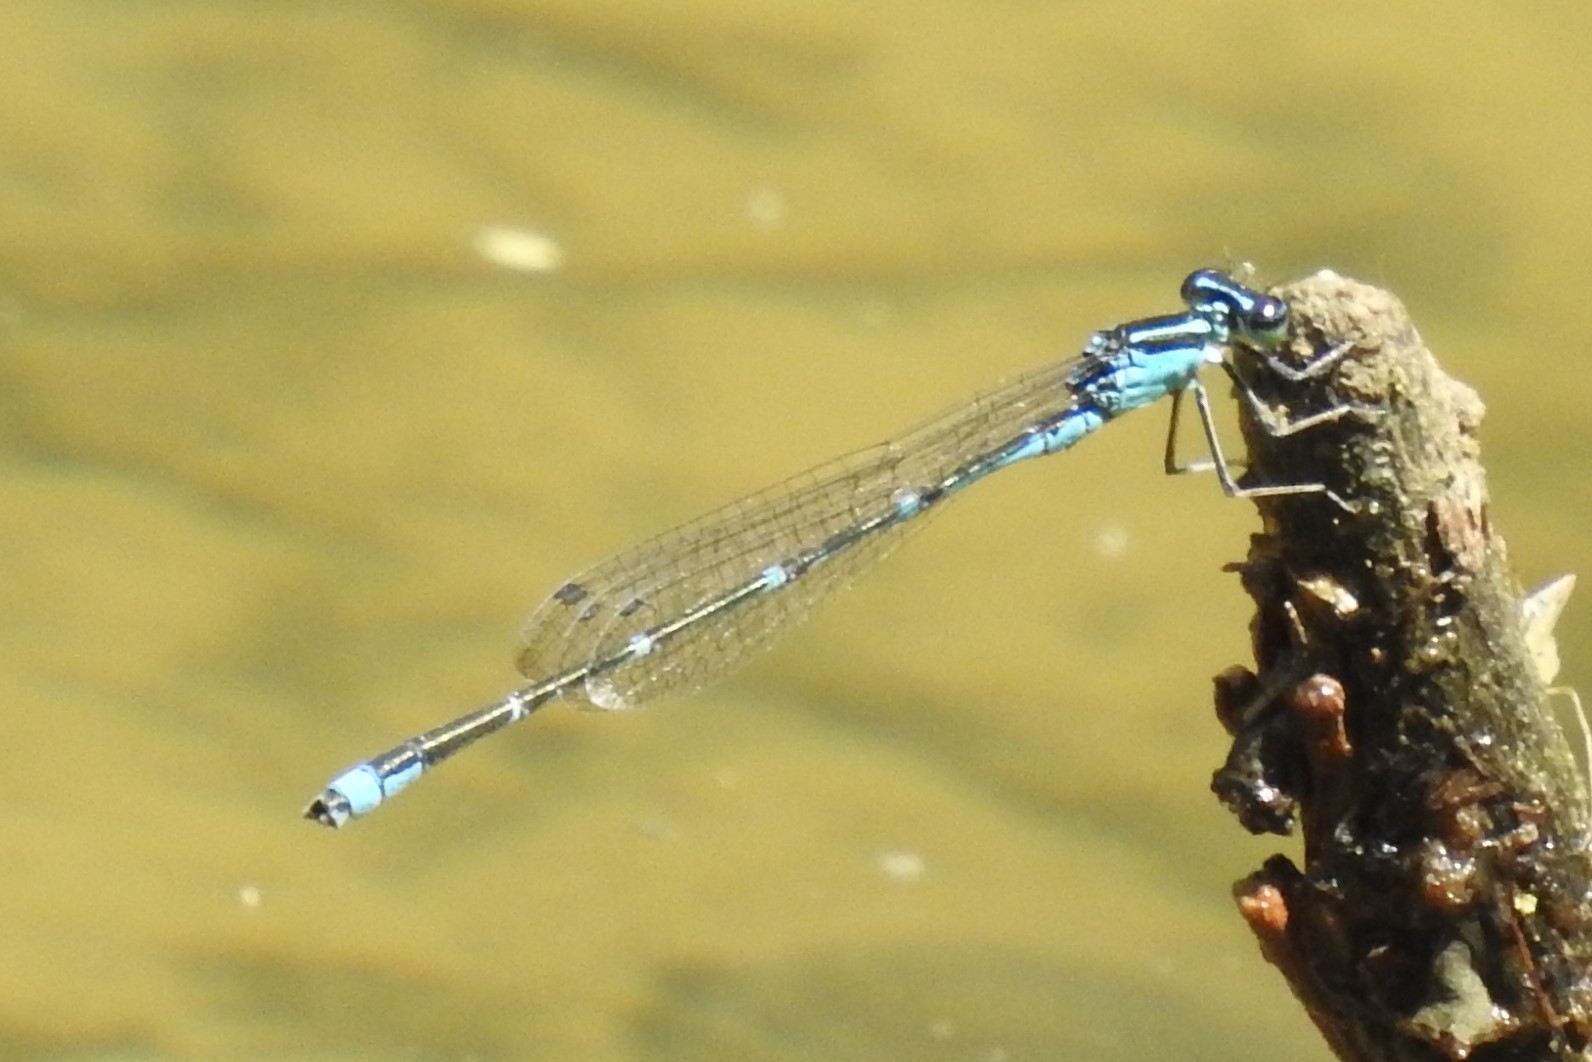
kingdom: Animalia
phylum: Arthropoda
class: Insecta
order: Odonata
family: Coenagrionidae
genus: Enallagma
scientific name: Enallagma exsulans
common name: Stream bluet
